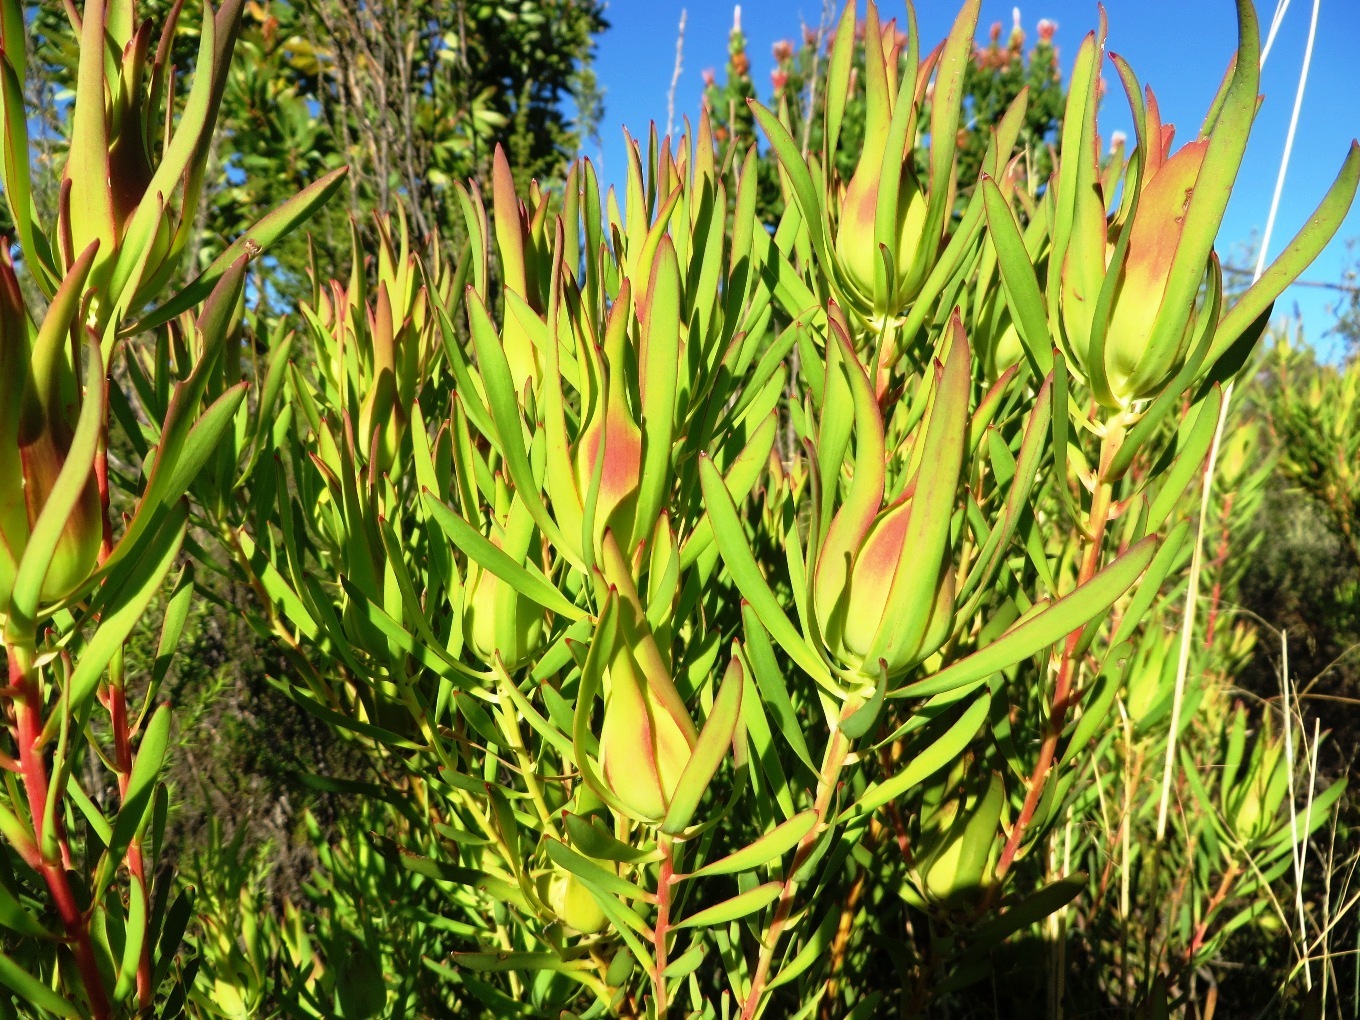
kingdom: Plantae
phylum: Tracheophyta
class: Magnoliopsida
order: Proteales
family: Proteaceae
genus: Leucadendron
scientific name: Leucadendron salignum
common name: Common sunshine conebush
